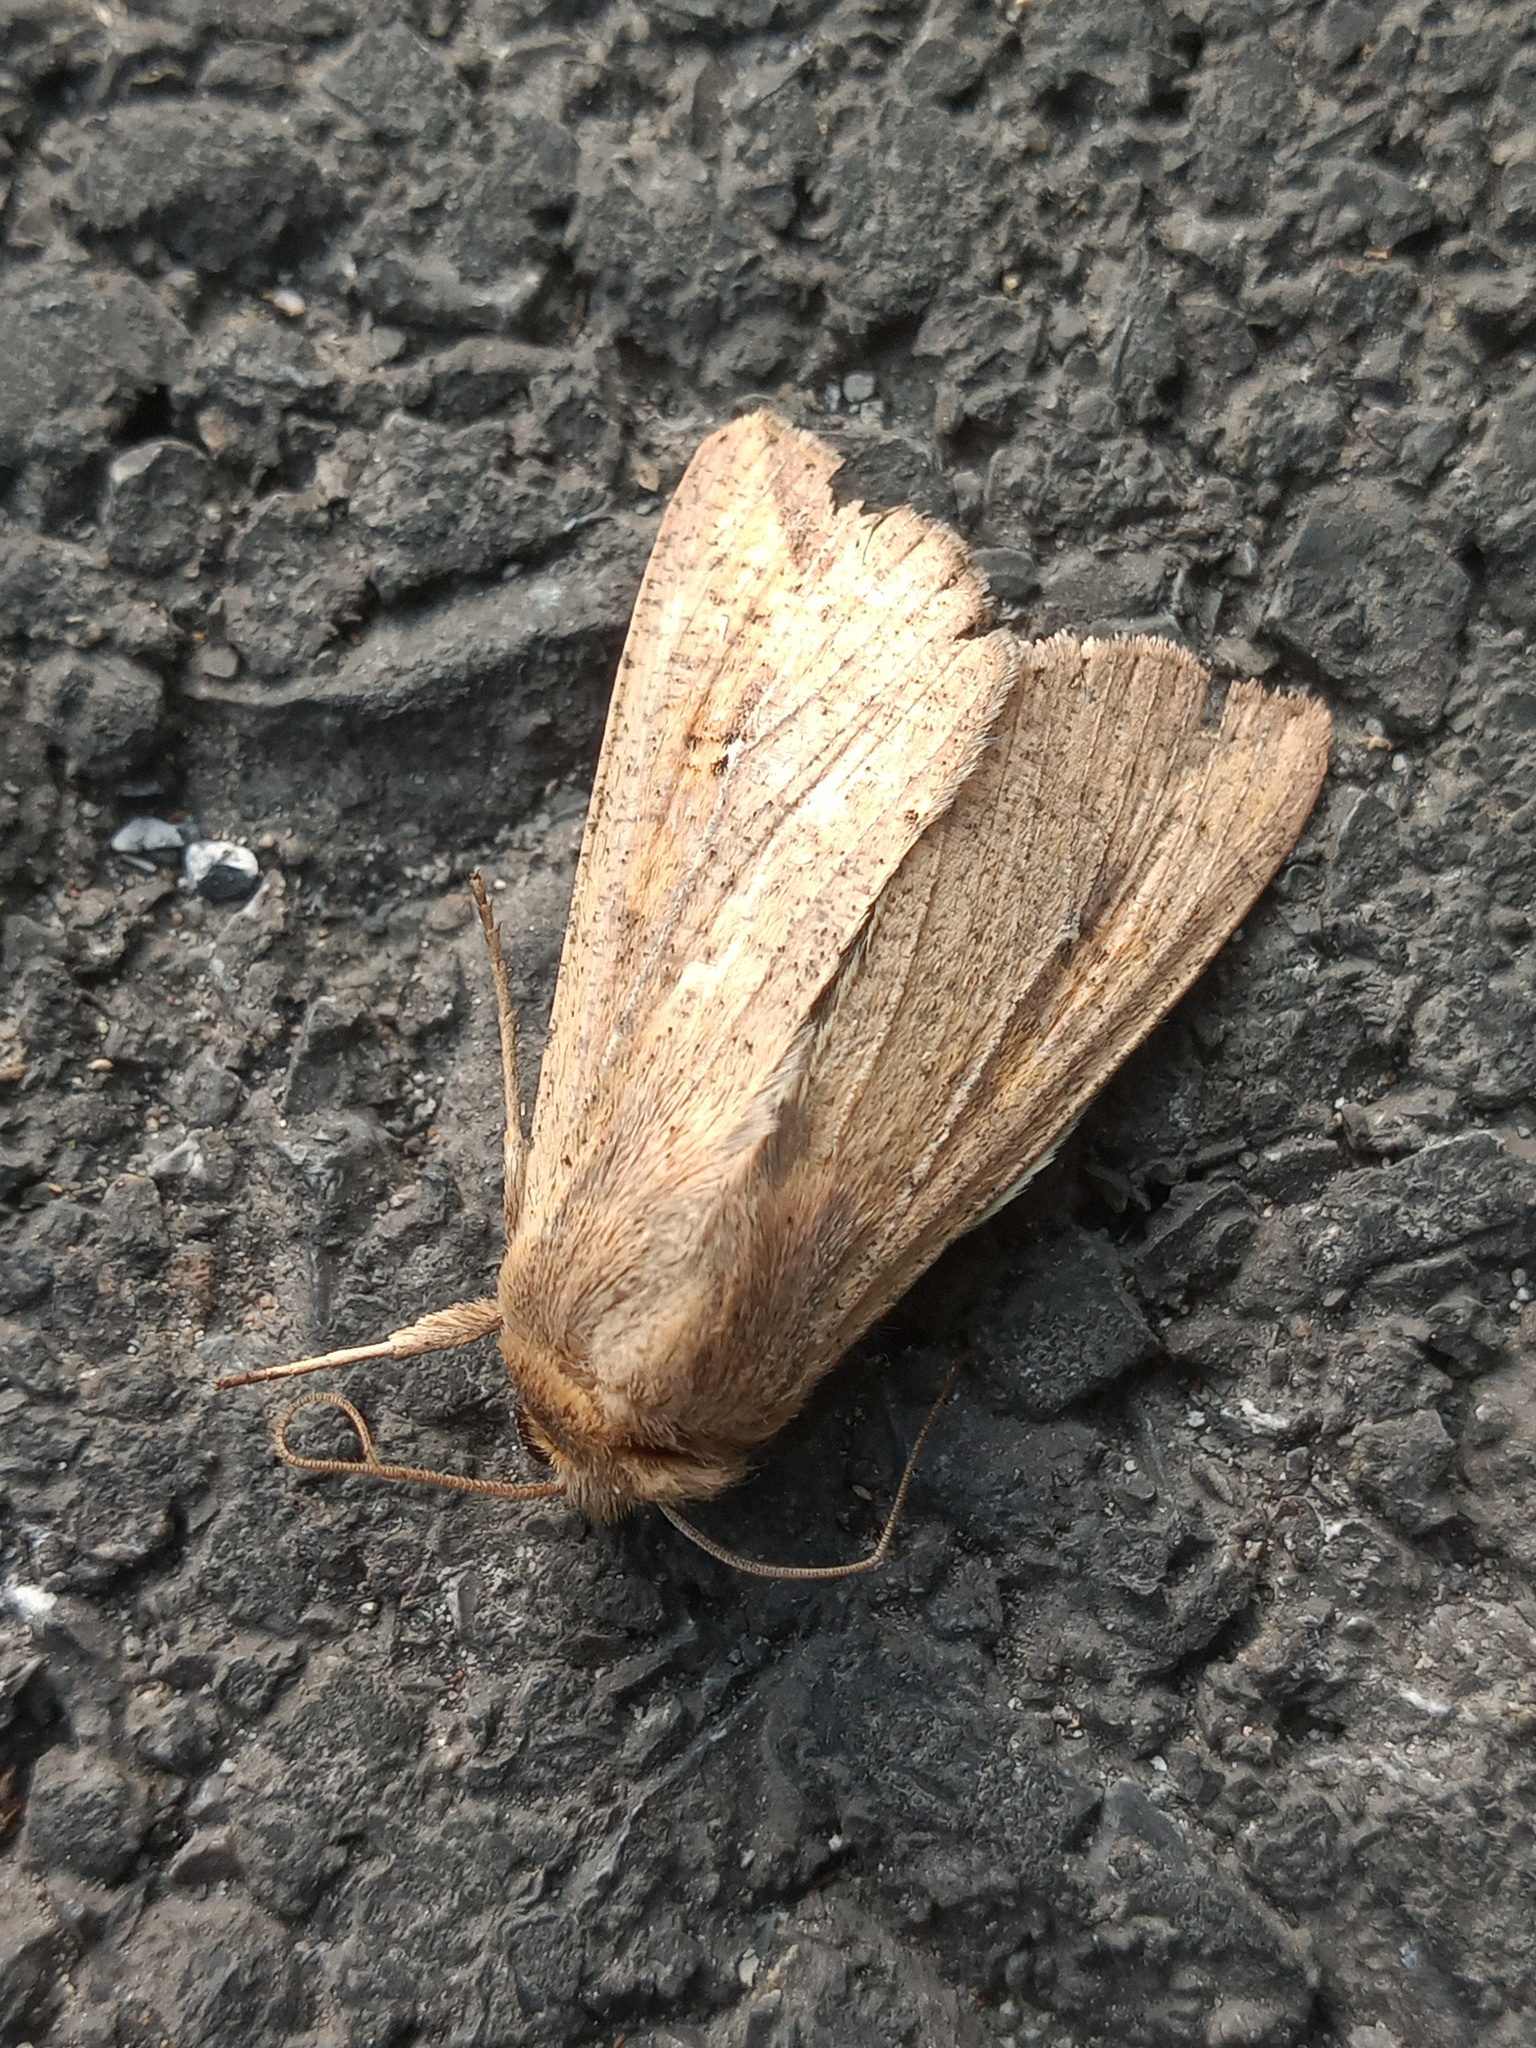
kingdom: Animalia
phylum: Arthropoda
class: Insecta
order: Lepidoptera
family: Noctuidae
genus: Mythimna
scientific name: Mythimna unipuncta
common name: White-speck
